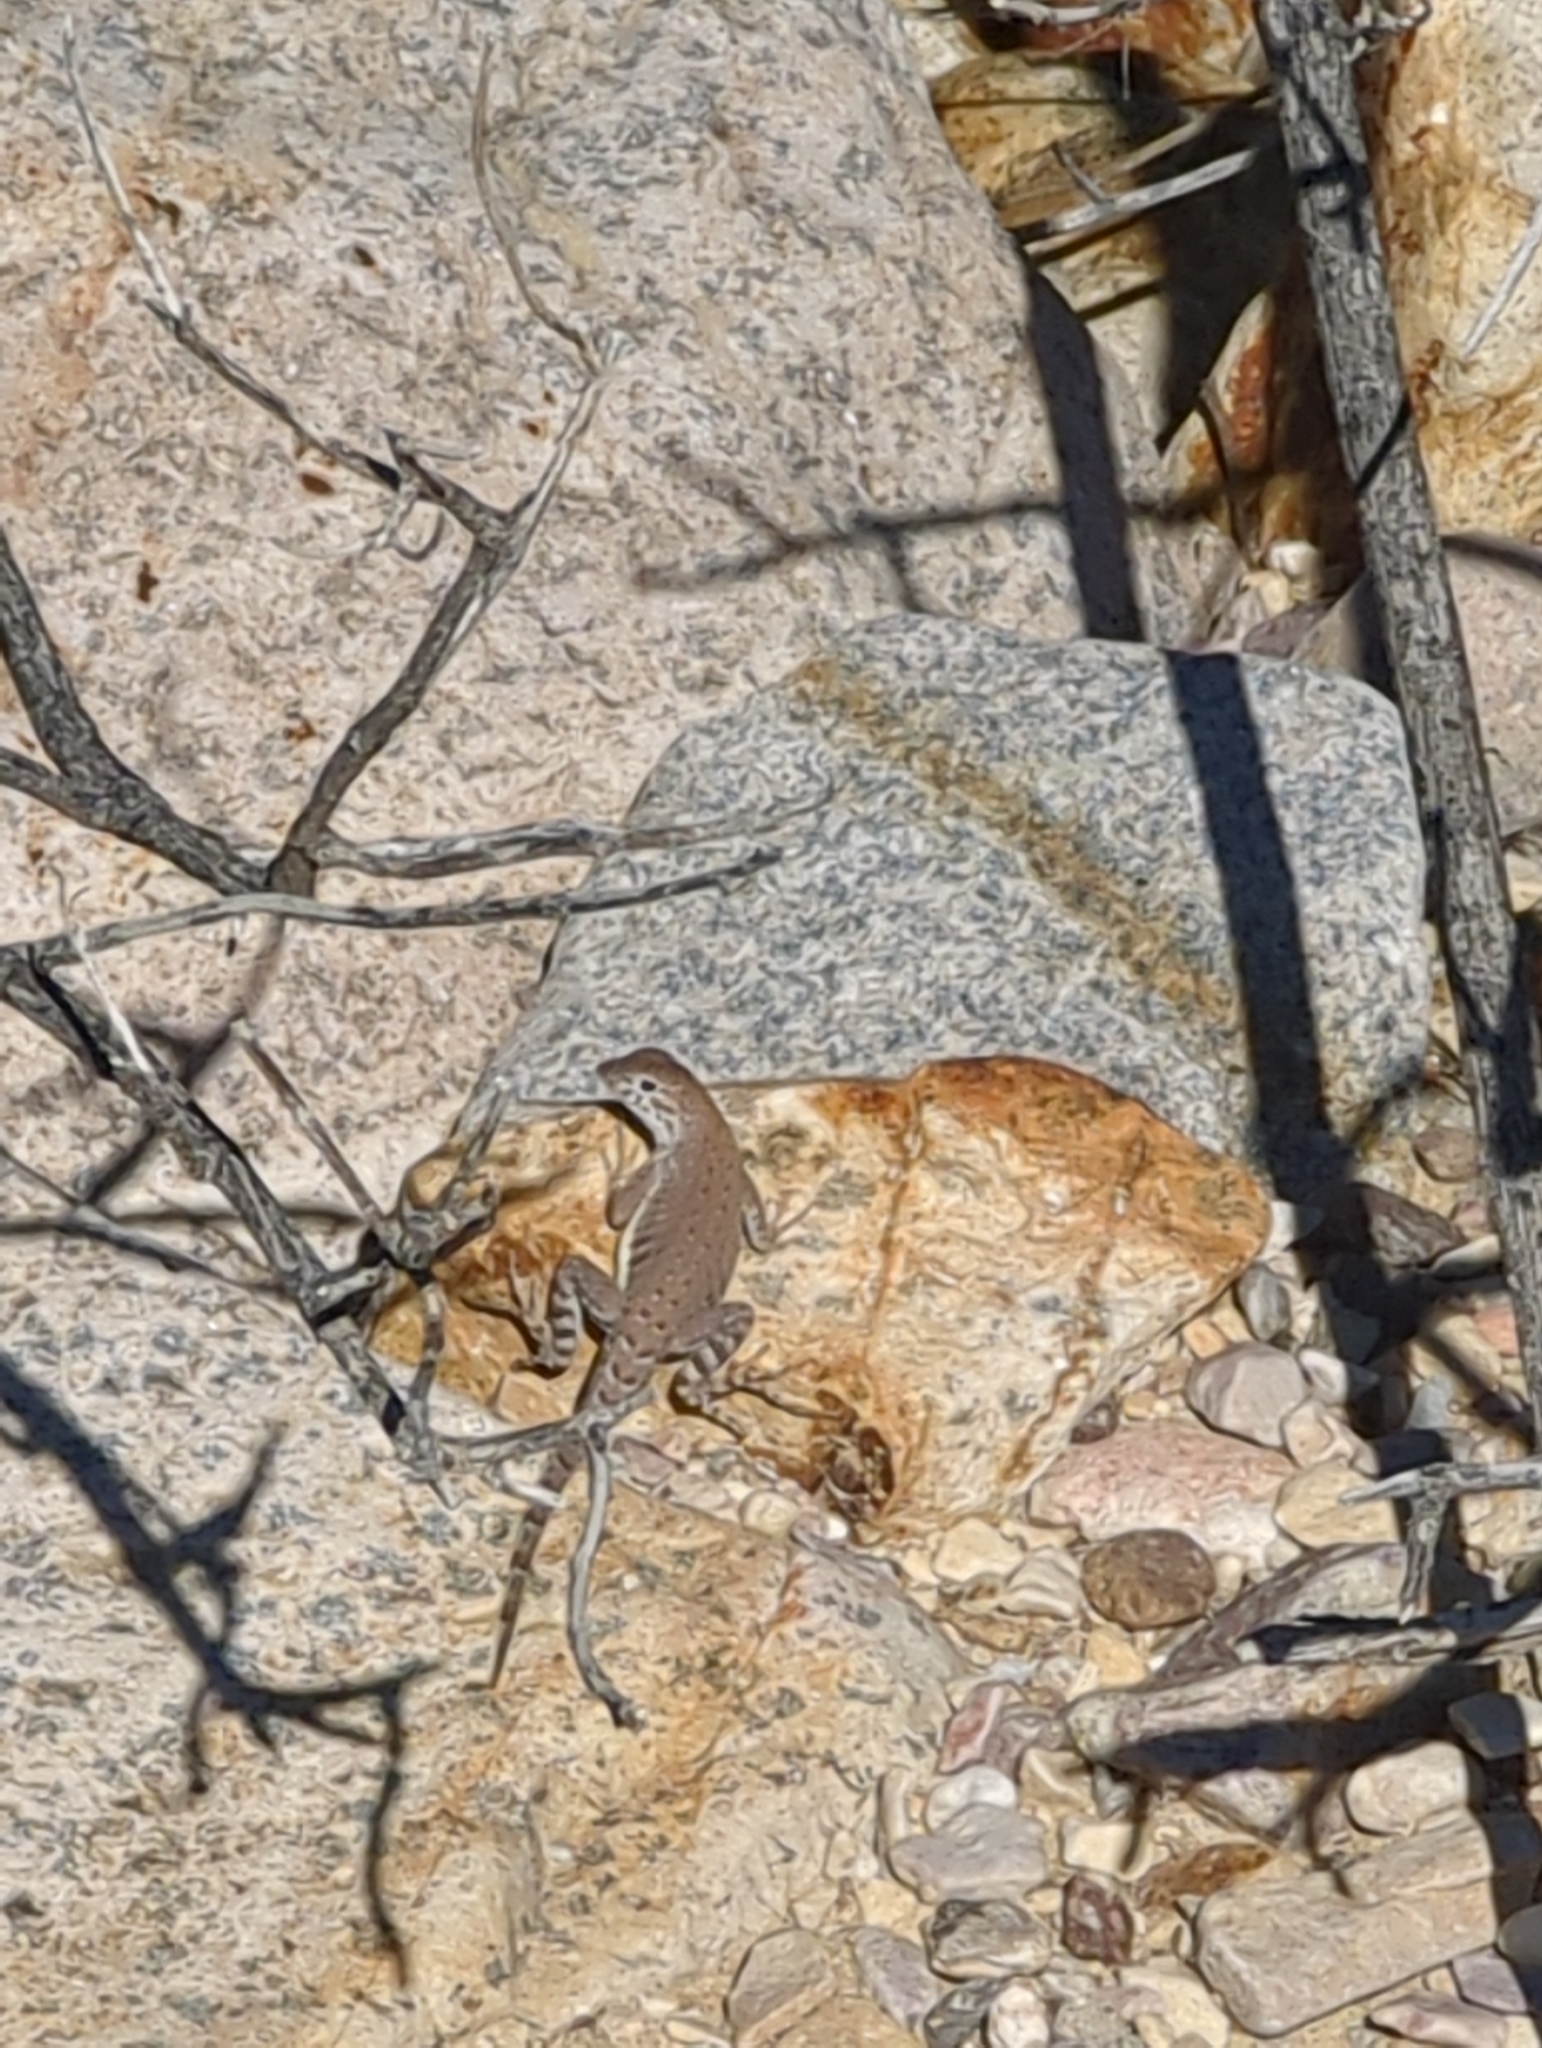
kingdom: Animalia
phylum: Chordata
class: Squamata
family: Phrynosomatidae
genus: Cophosaurus
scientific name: Cophosaurus texanus
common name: Greater earless lizard
